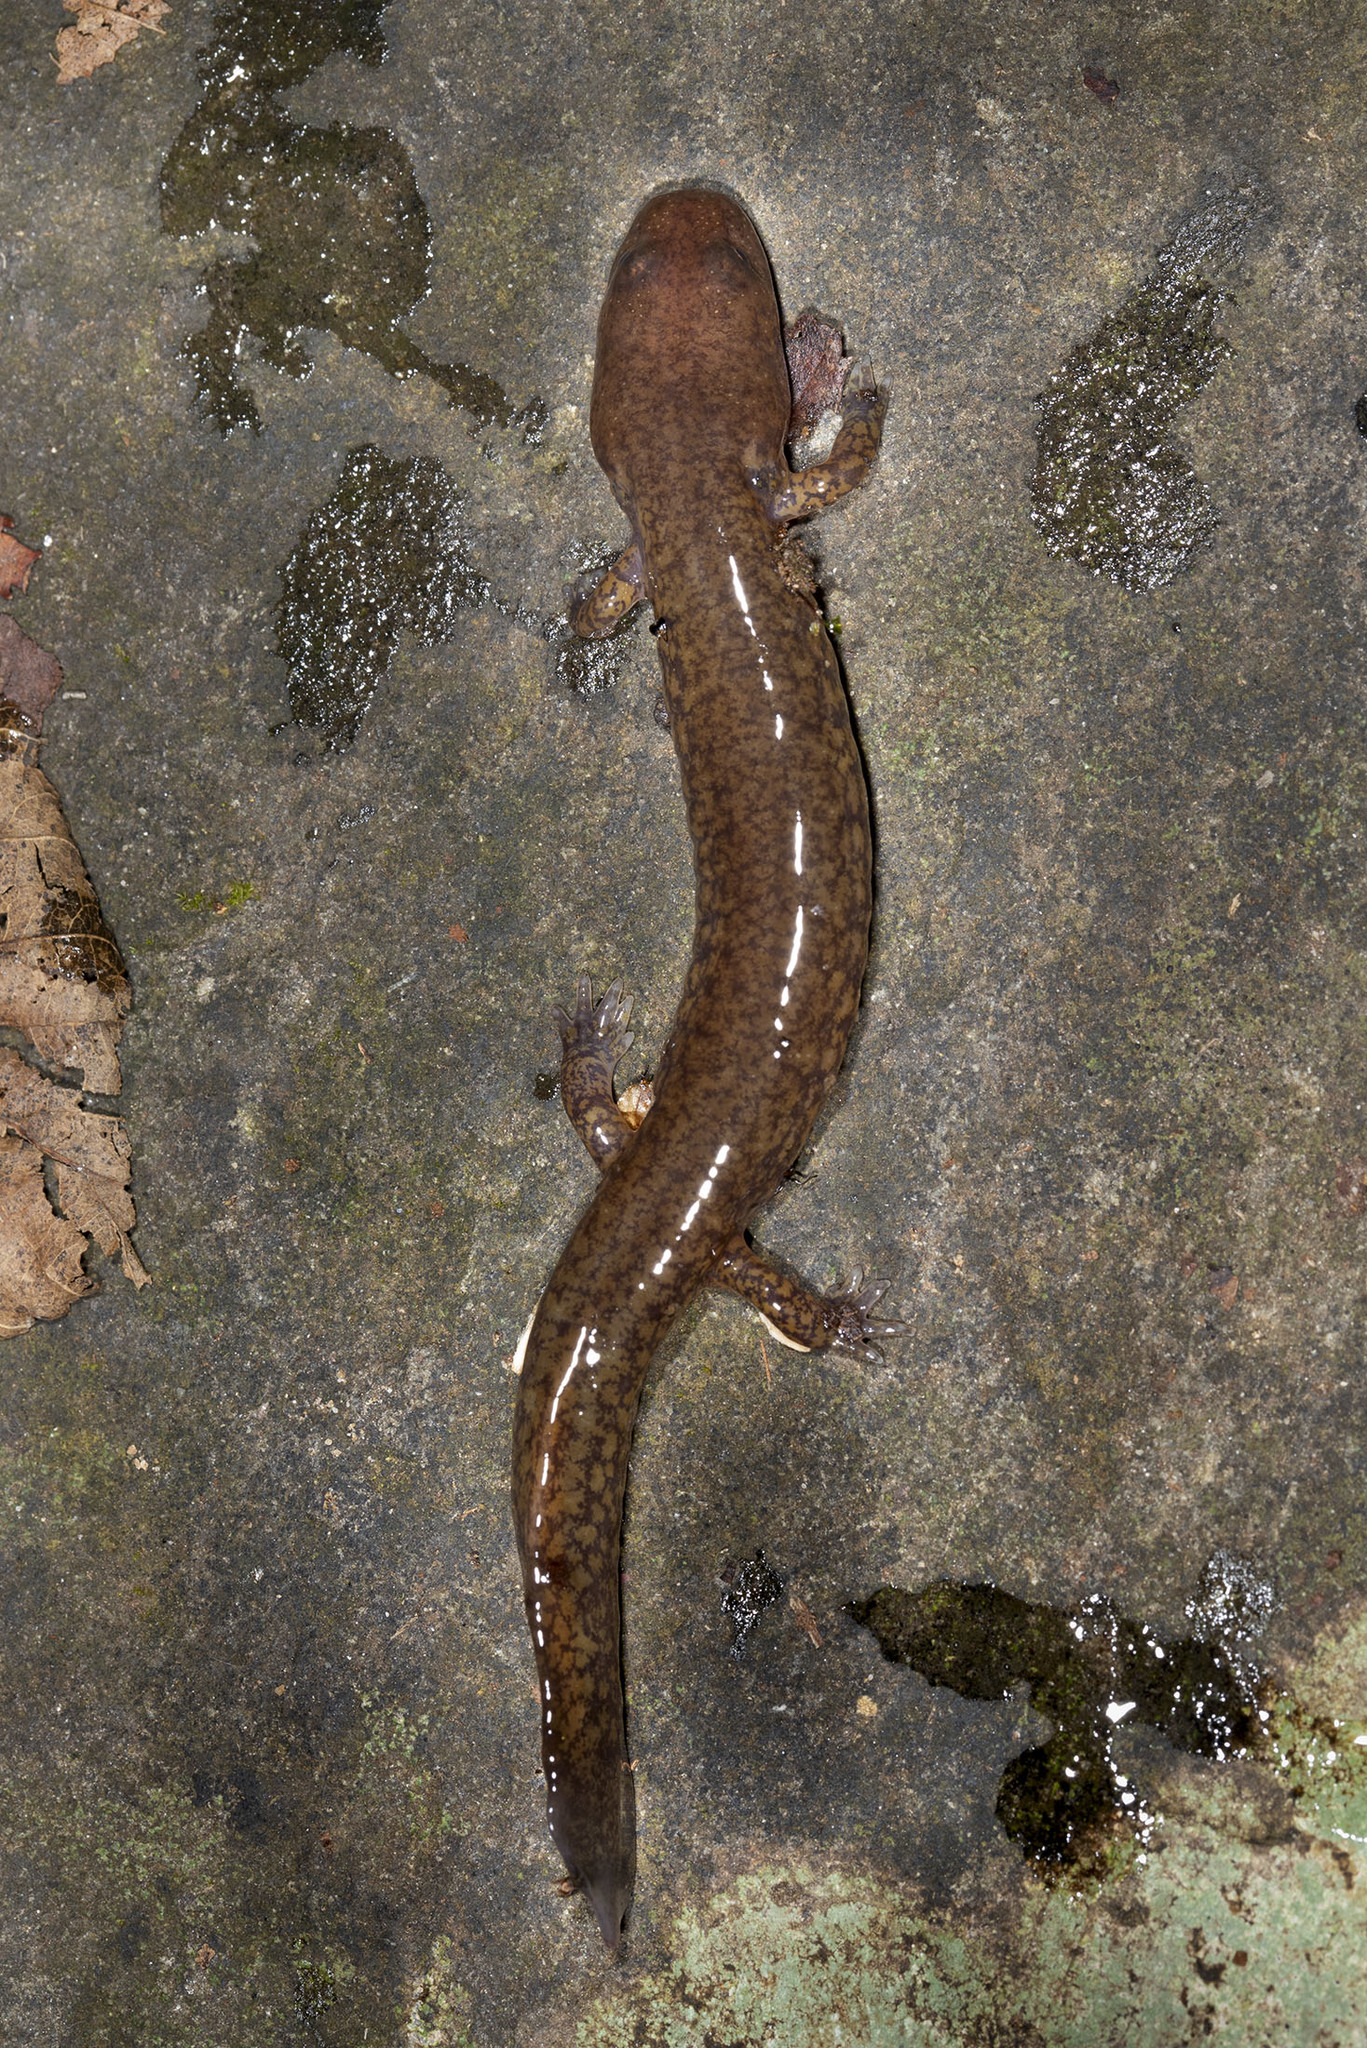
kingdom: Animalia
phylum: Chordata
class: Amphibia
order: Caudata
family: Plethodontidae
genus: Gyrinophilus
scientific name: Gyrinophilus porphyriticus
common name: Spring salamander
